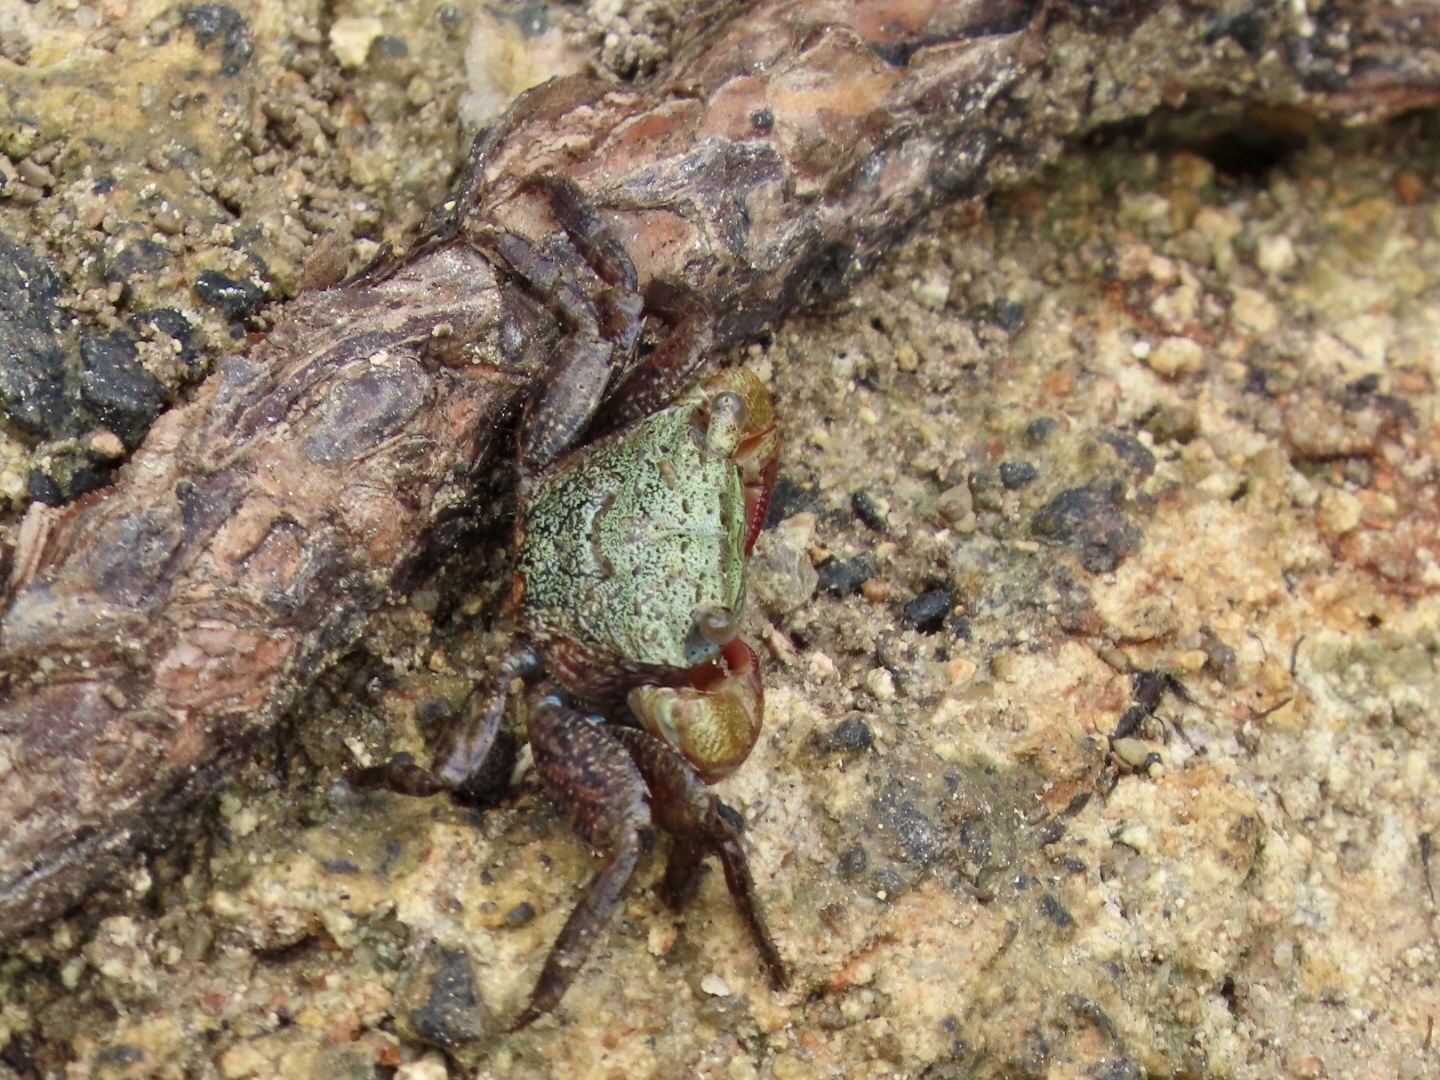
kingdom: Animalia
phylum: Arthropoda
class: Malacostraca
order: Decapoda
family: Sesarmidae
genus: Parasesarma
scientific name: Parasesarma bidens
